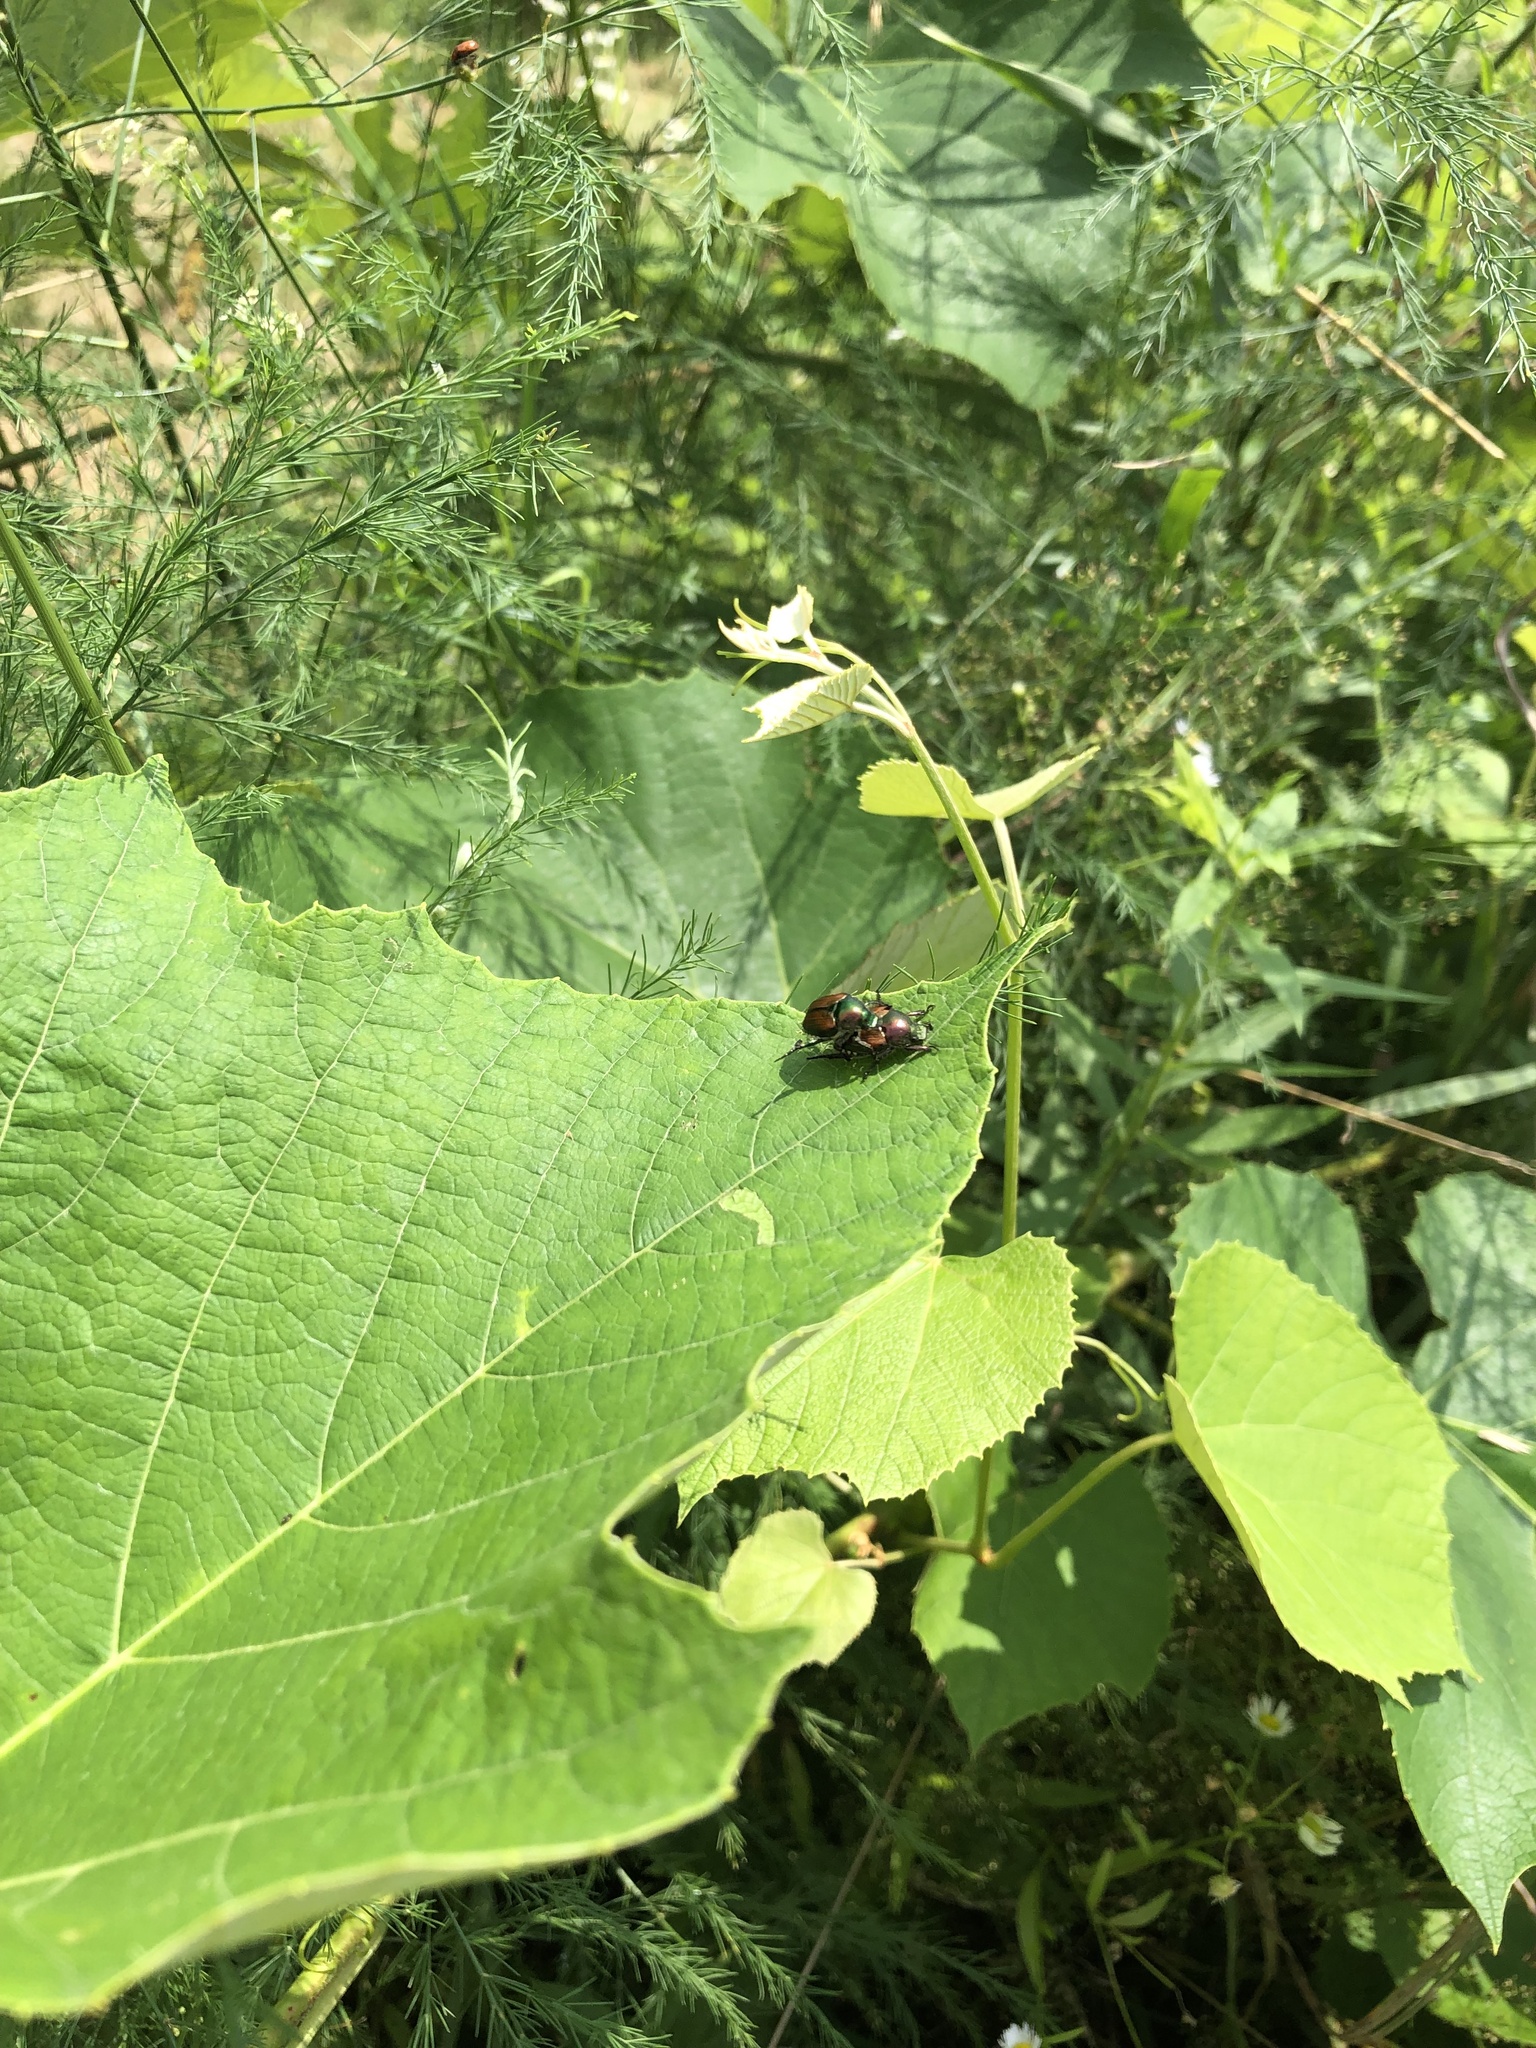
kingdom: Animalia
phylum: Arthropoda
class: Insecta
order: Coleoptera
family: Scarabaeidae
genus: Popillia
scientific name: Popillia japonica
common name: Japanese beetle
